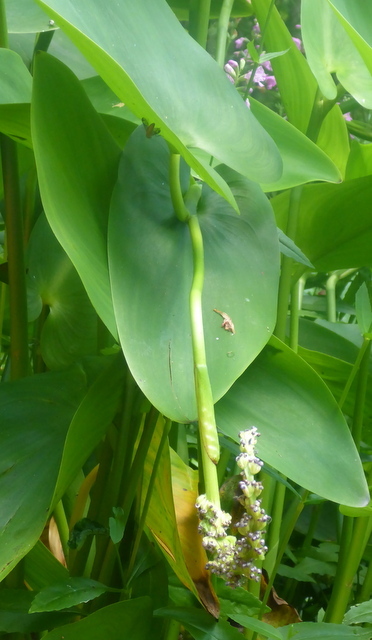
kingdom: Plantae
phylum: Tracheophyta
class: Liliopsida
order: Commelinales
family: Pontederiaceae
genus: Pontederia
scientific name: Pontederia cordata
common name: Pickerelweed
